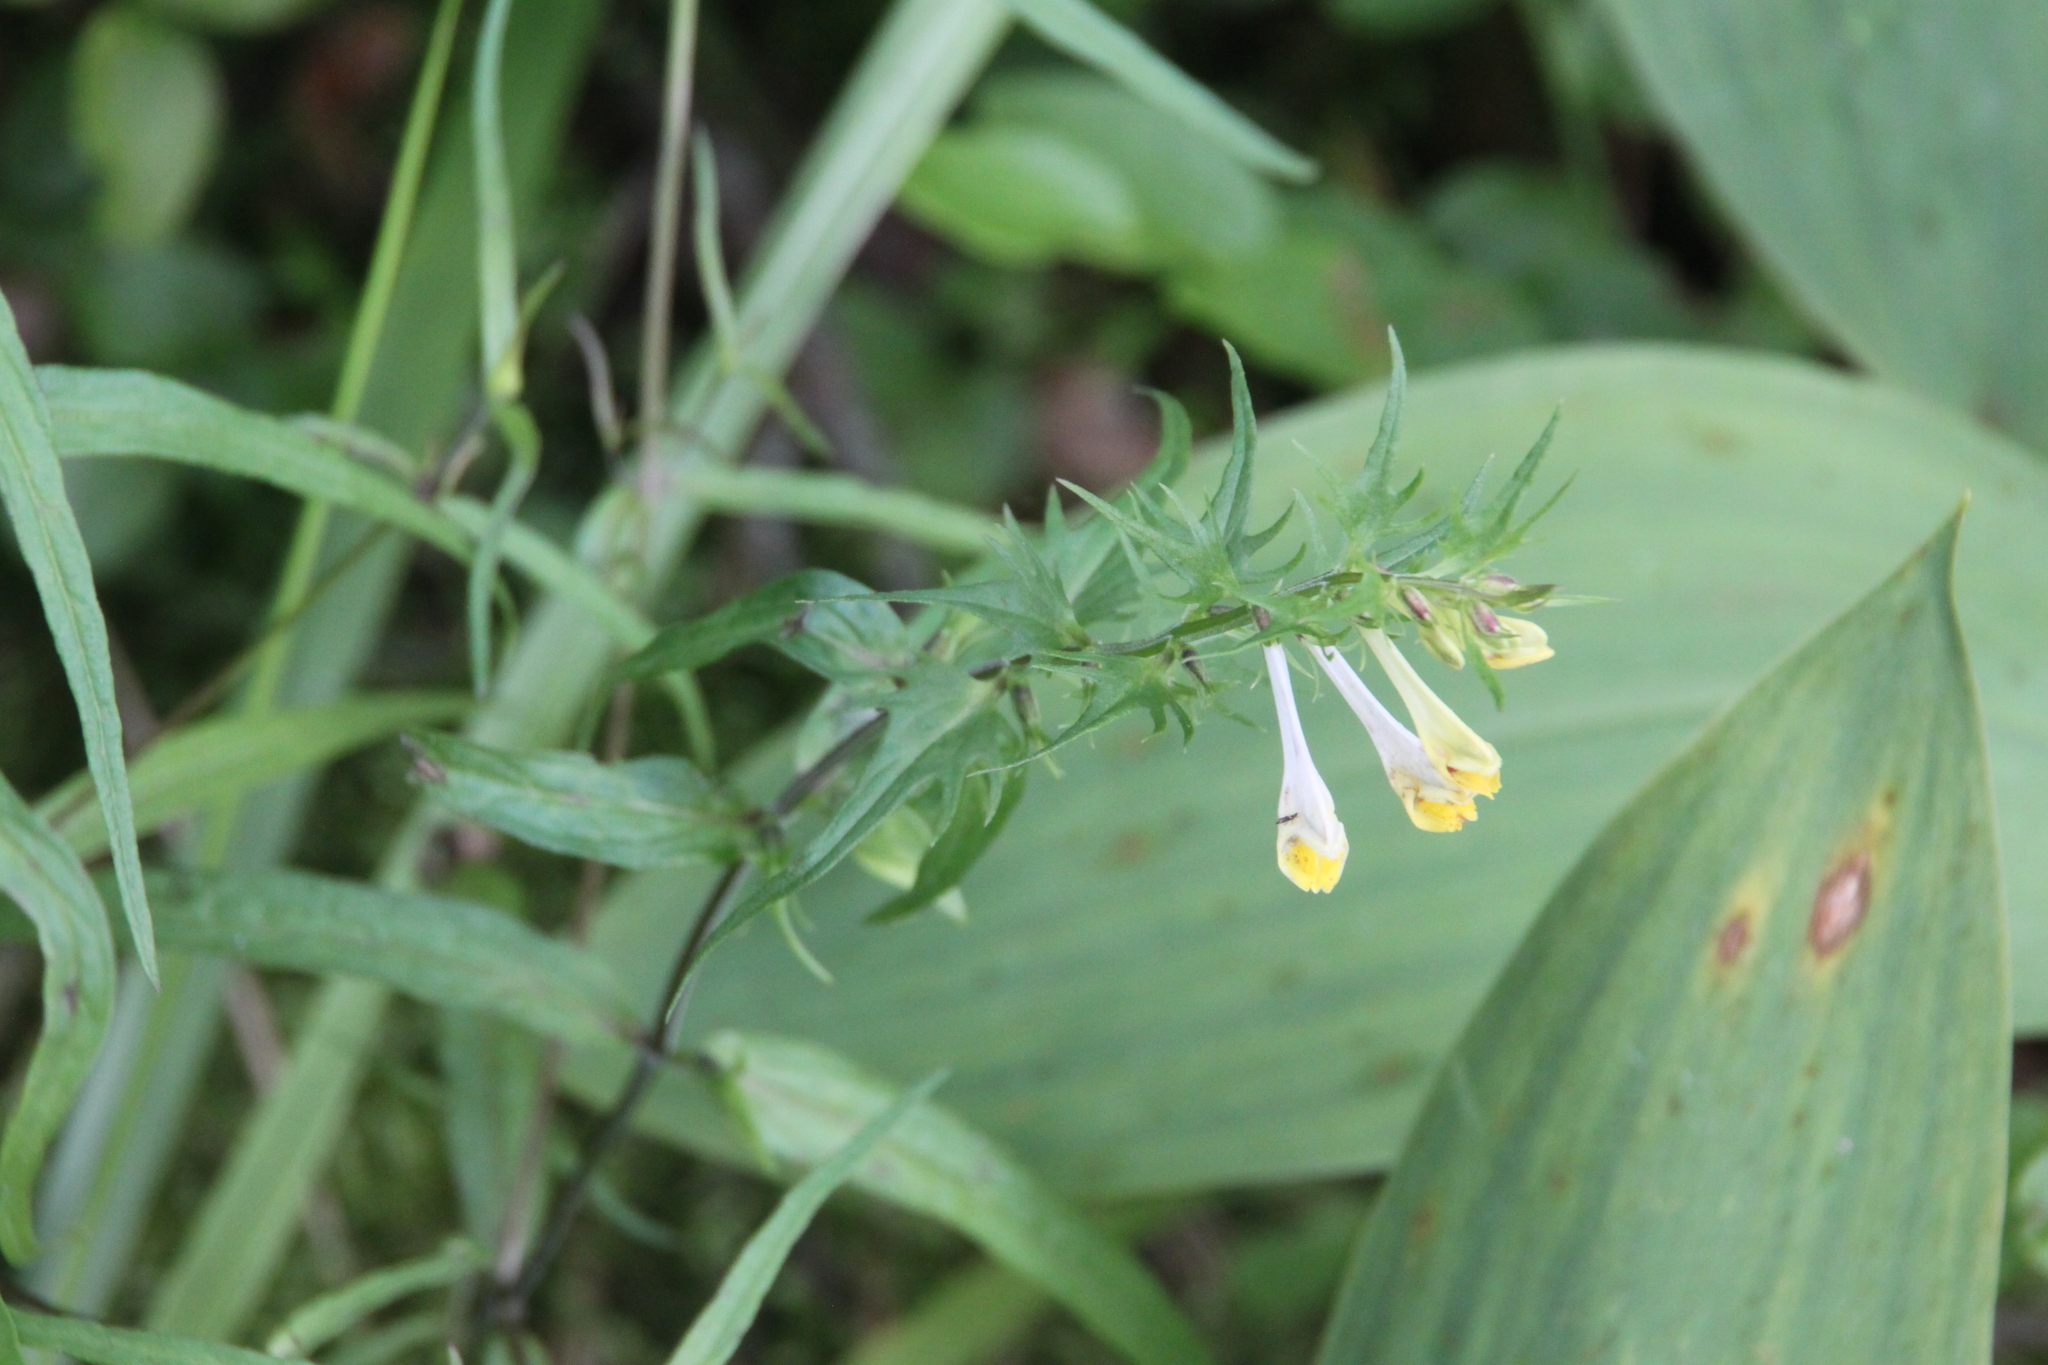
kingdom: Plantae
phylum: Tracheophyta
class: Magnoliopsida
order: Lamiales
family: Orobanchaceae
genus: Melampyrum
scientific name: Melampyrum pratense
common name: Common cow-wheat
